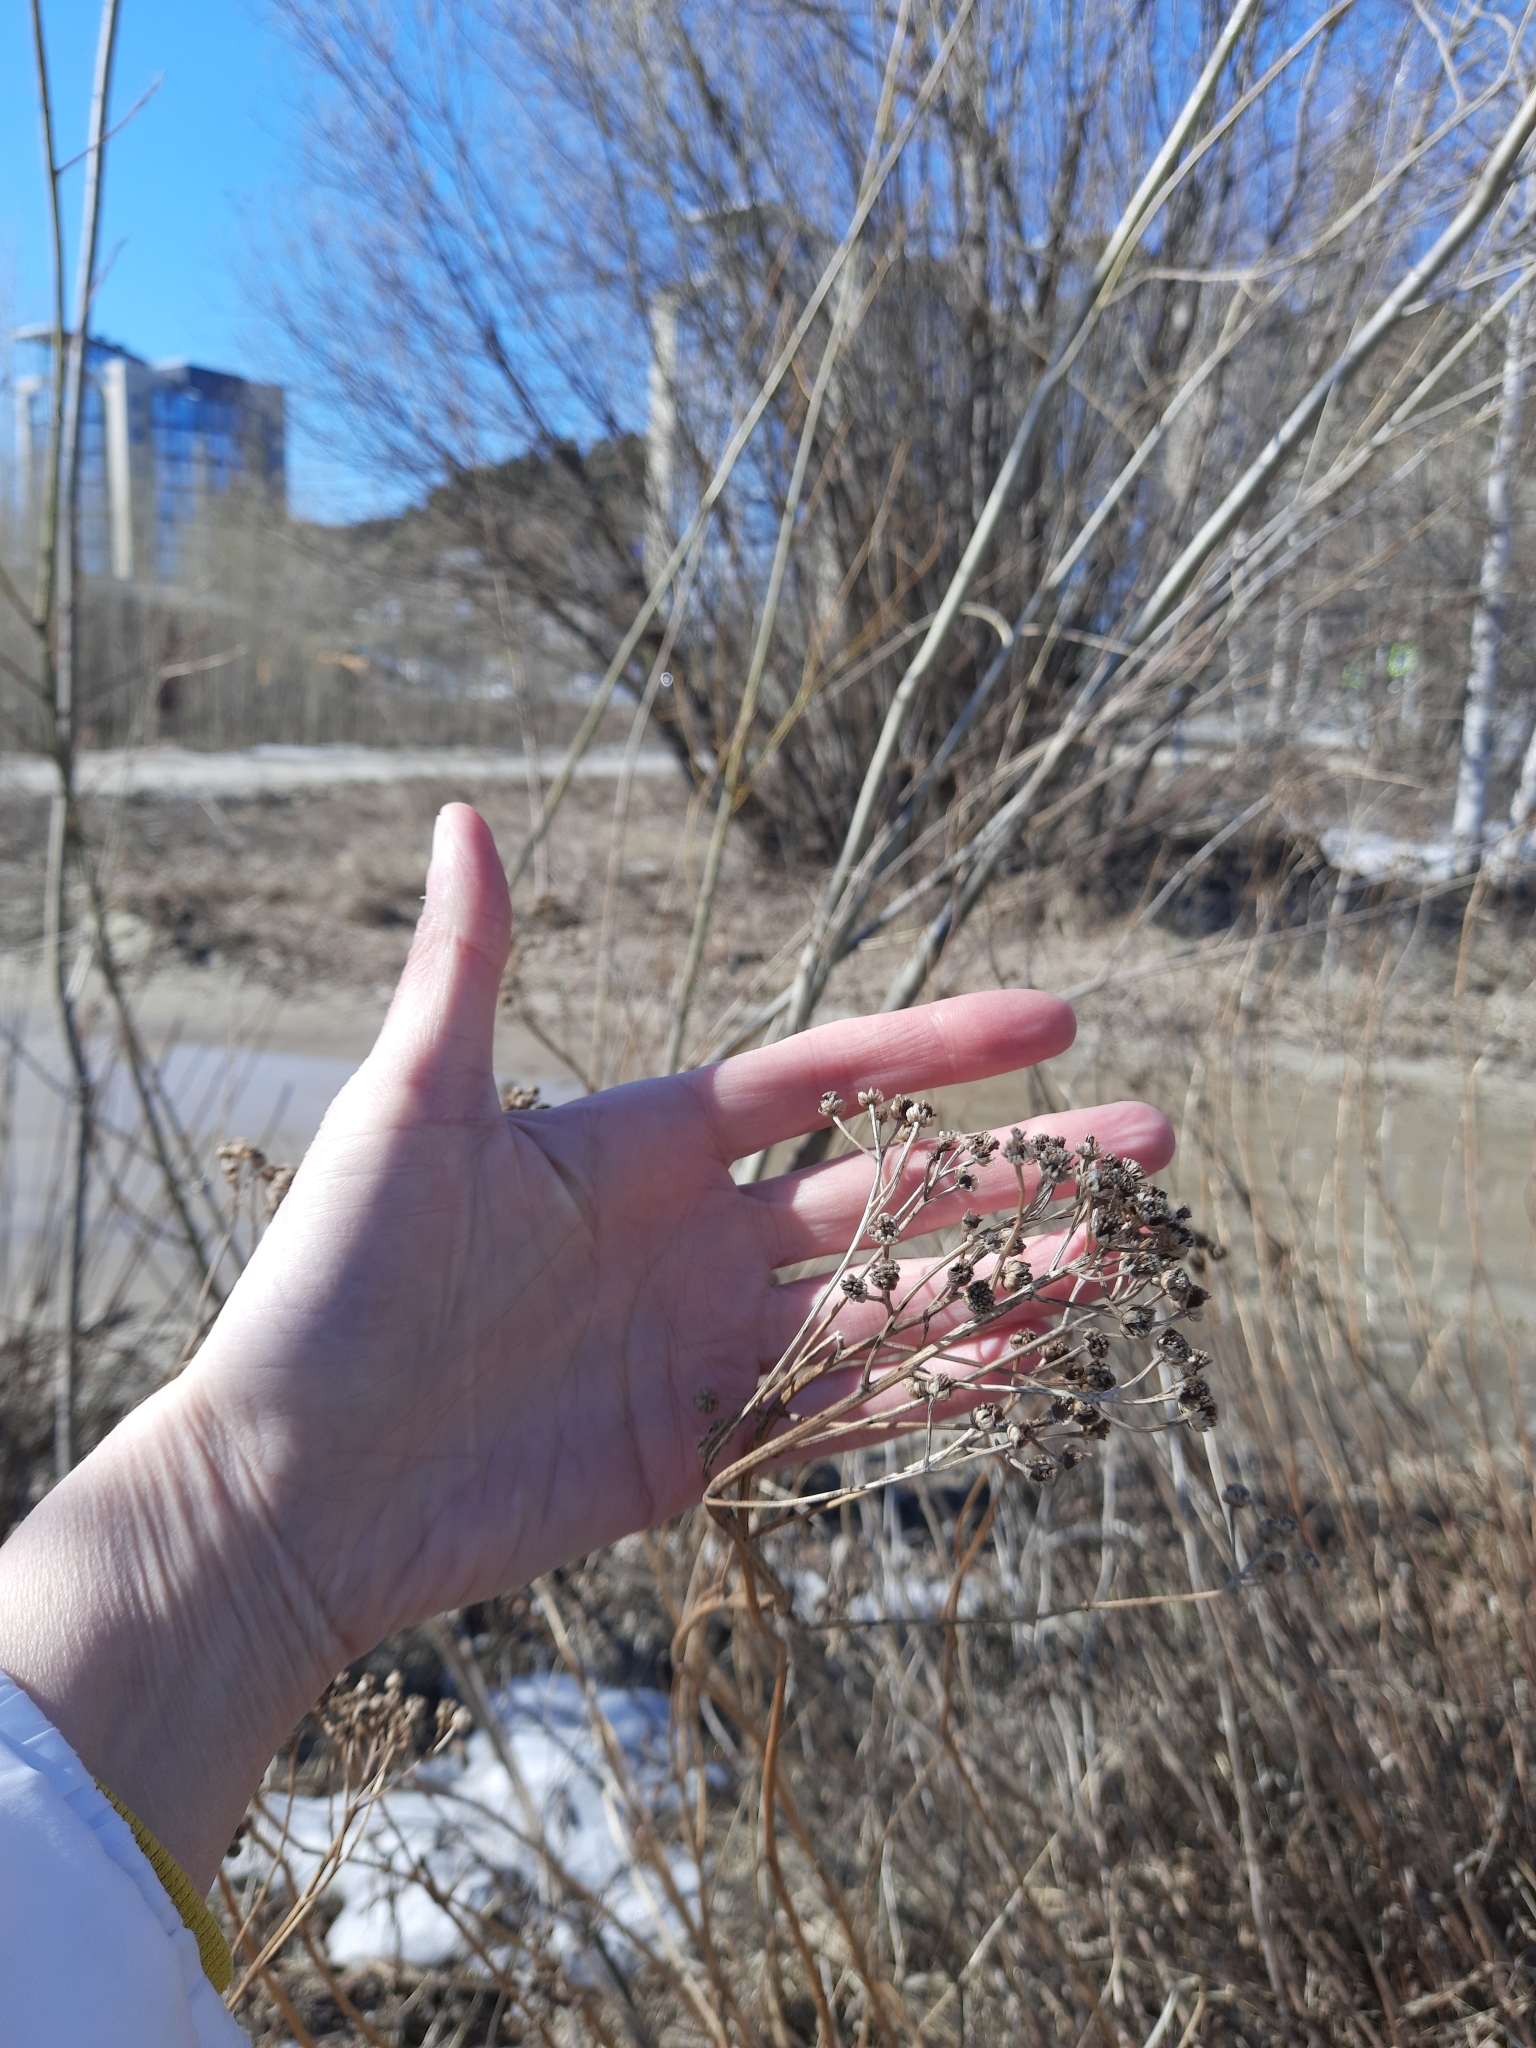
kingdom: Plantae
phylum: Tracheophyta
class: Magnoliopsida
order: Asterales
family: Asteraceae
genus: Tanacetum
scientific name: Tanacetum vulgare
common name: Common tansy
